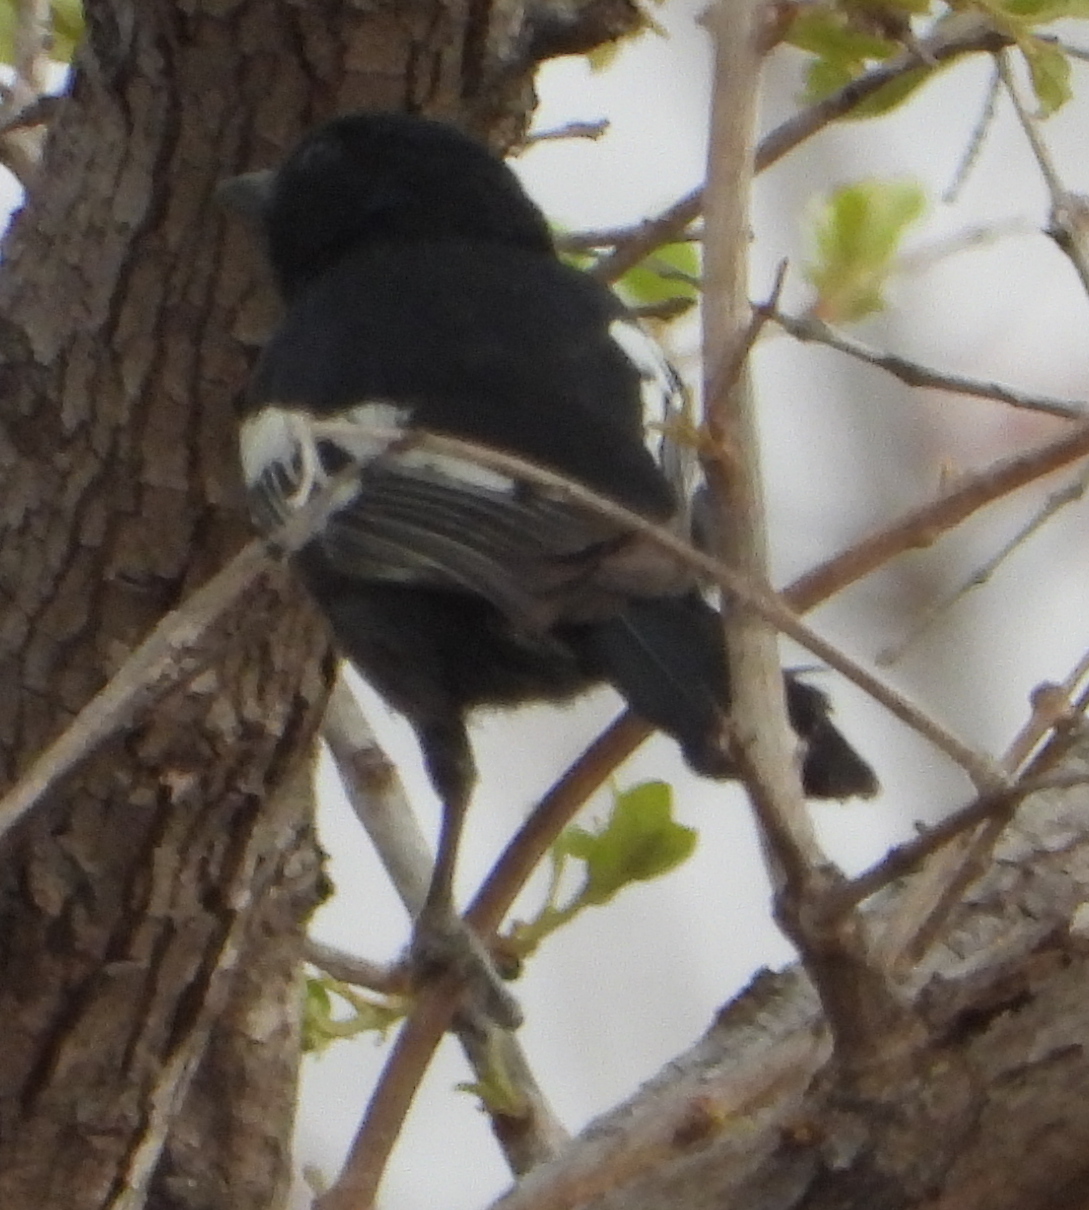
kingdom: Animalia
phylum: Chordata
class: Aves
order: Passeriformes
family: Paridae
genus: Parus
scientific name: Parus niger
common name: Southern black tit
